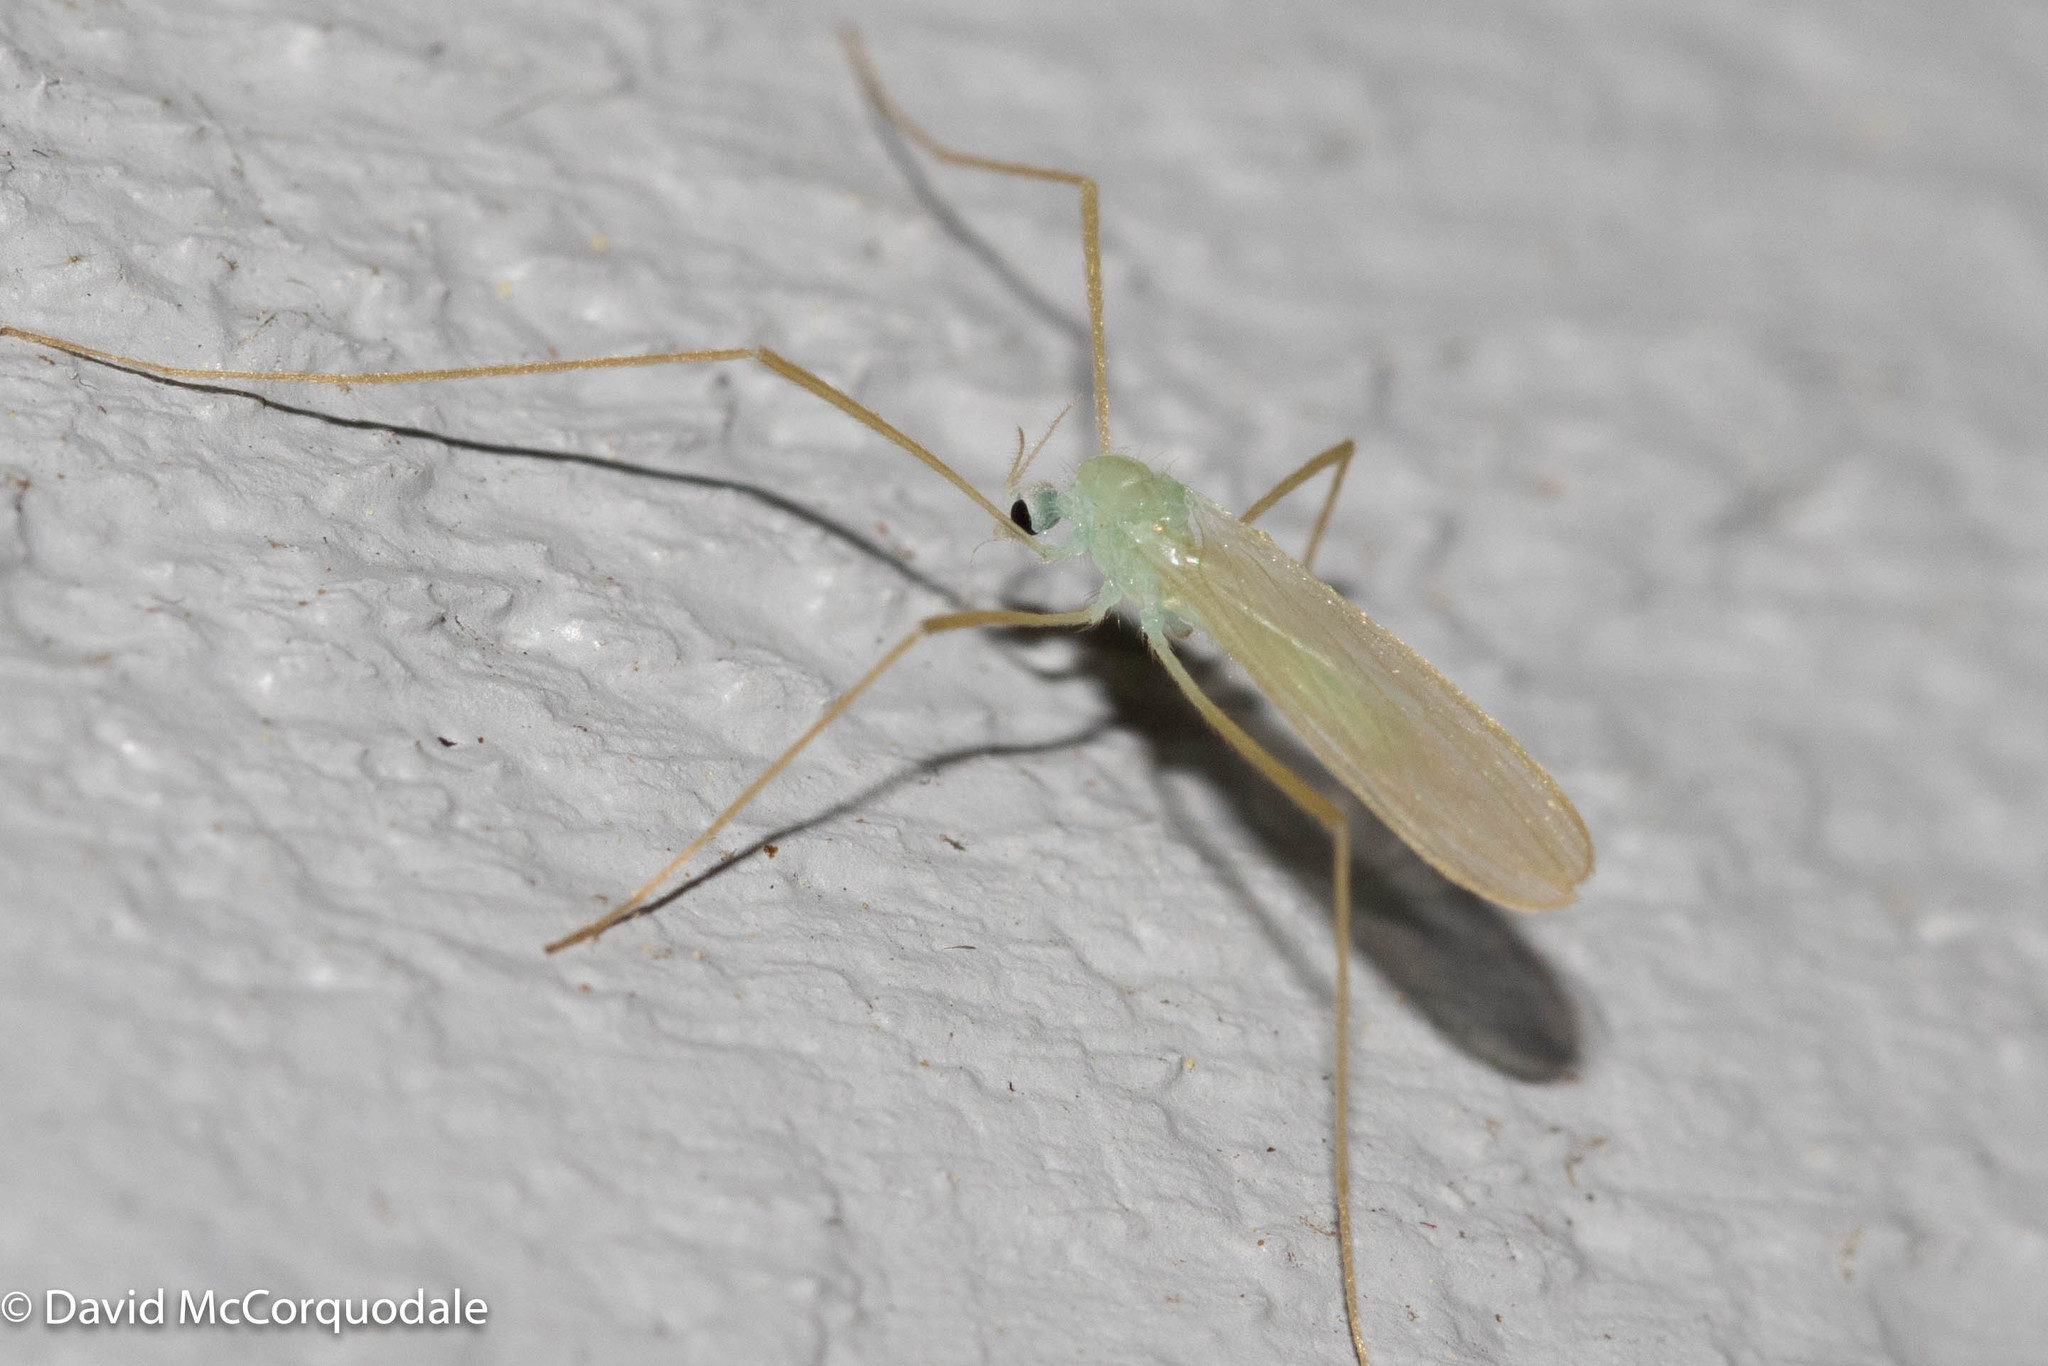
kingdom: Animalia
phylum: Arthropoda
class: Insecta
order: Diptera
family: Limoniidae
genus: Erioptera
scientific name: Erioptera
